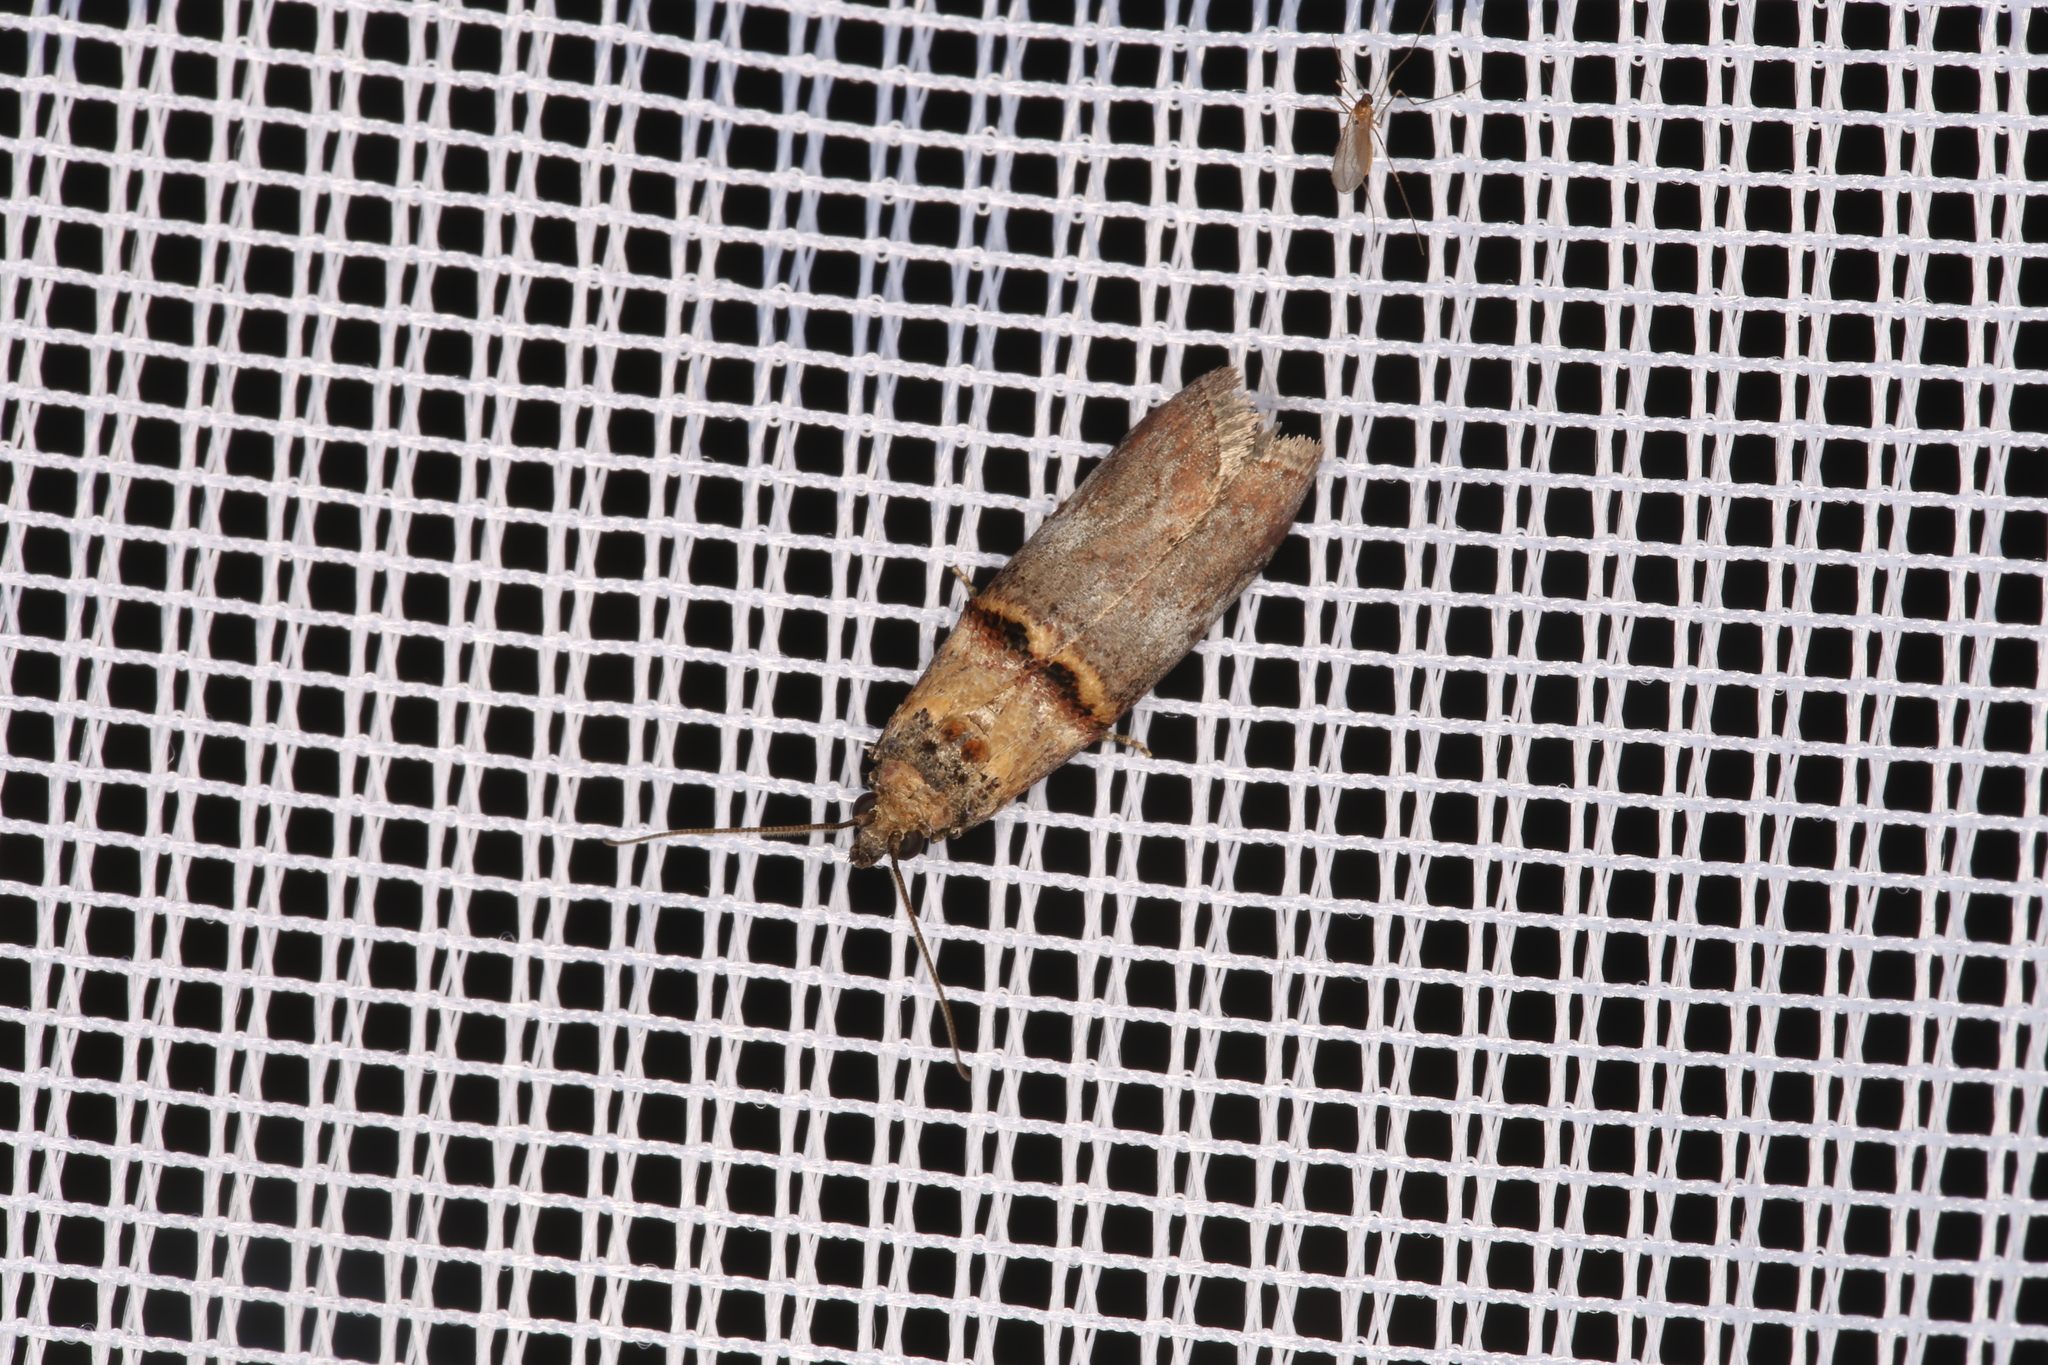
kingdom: Animalia
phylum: Arthropoda
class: Insecta
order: Lepidoptera
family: Pyralidae
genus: Trachonitis
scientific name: Trachonitis cristella
